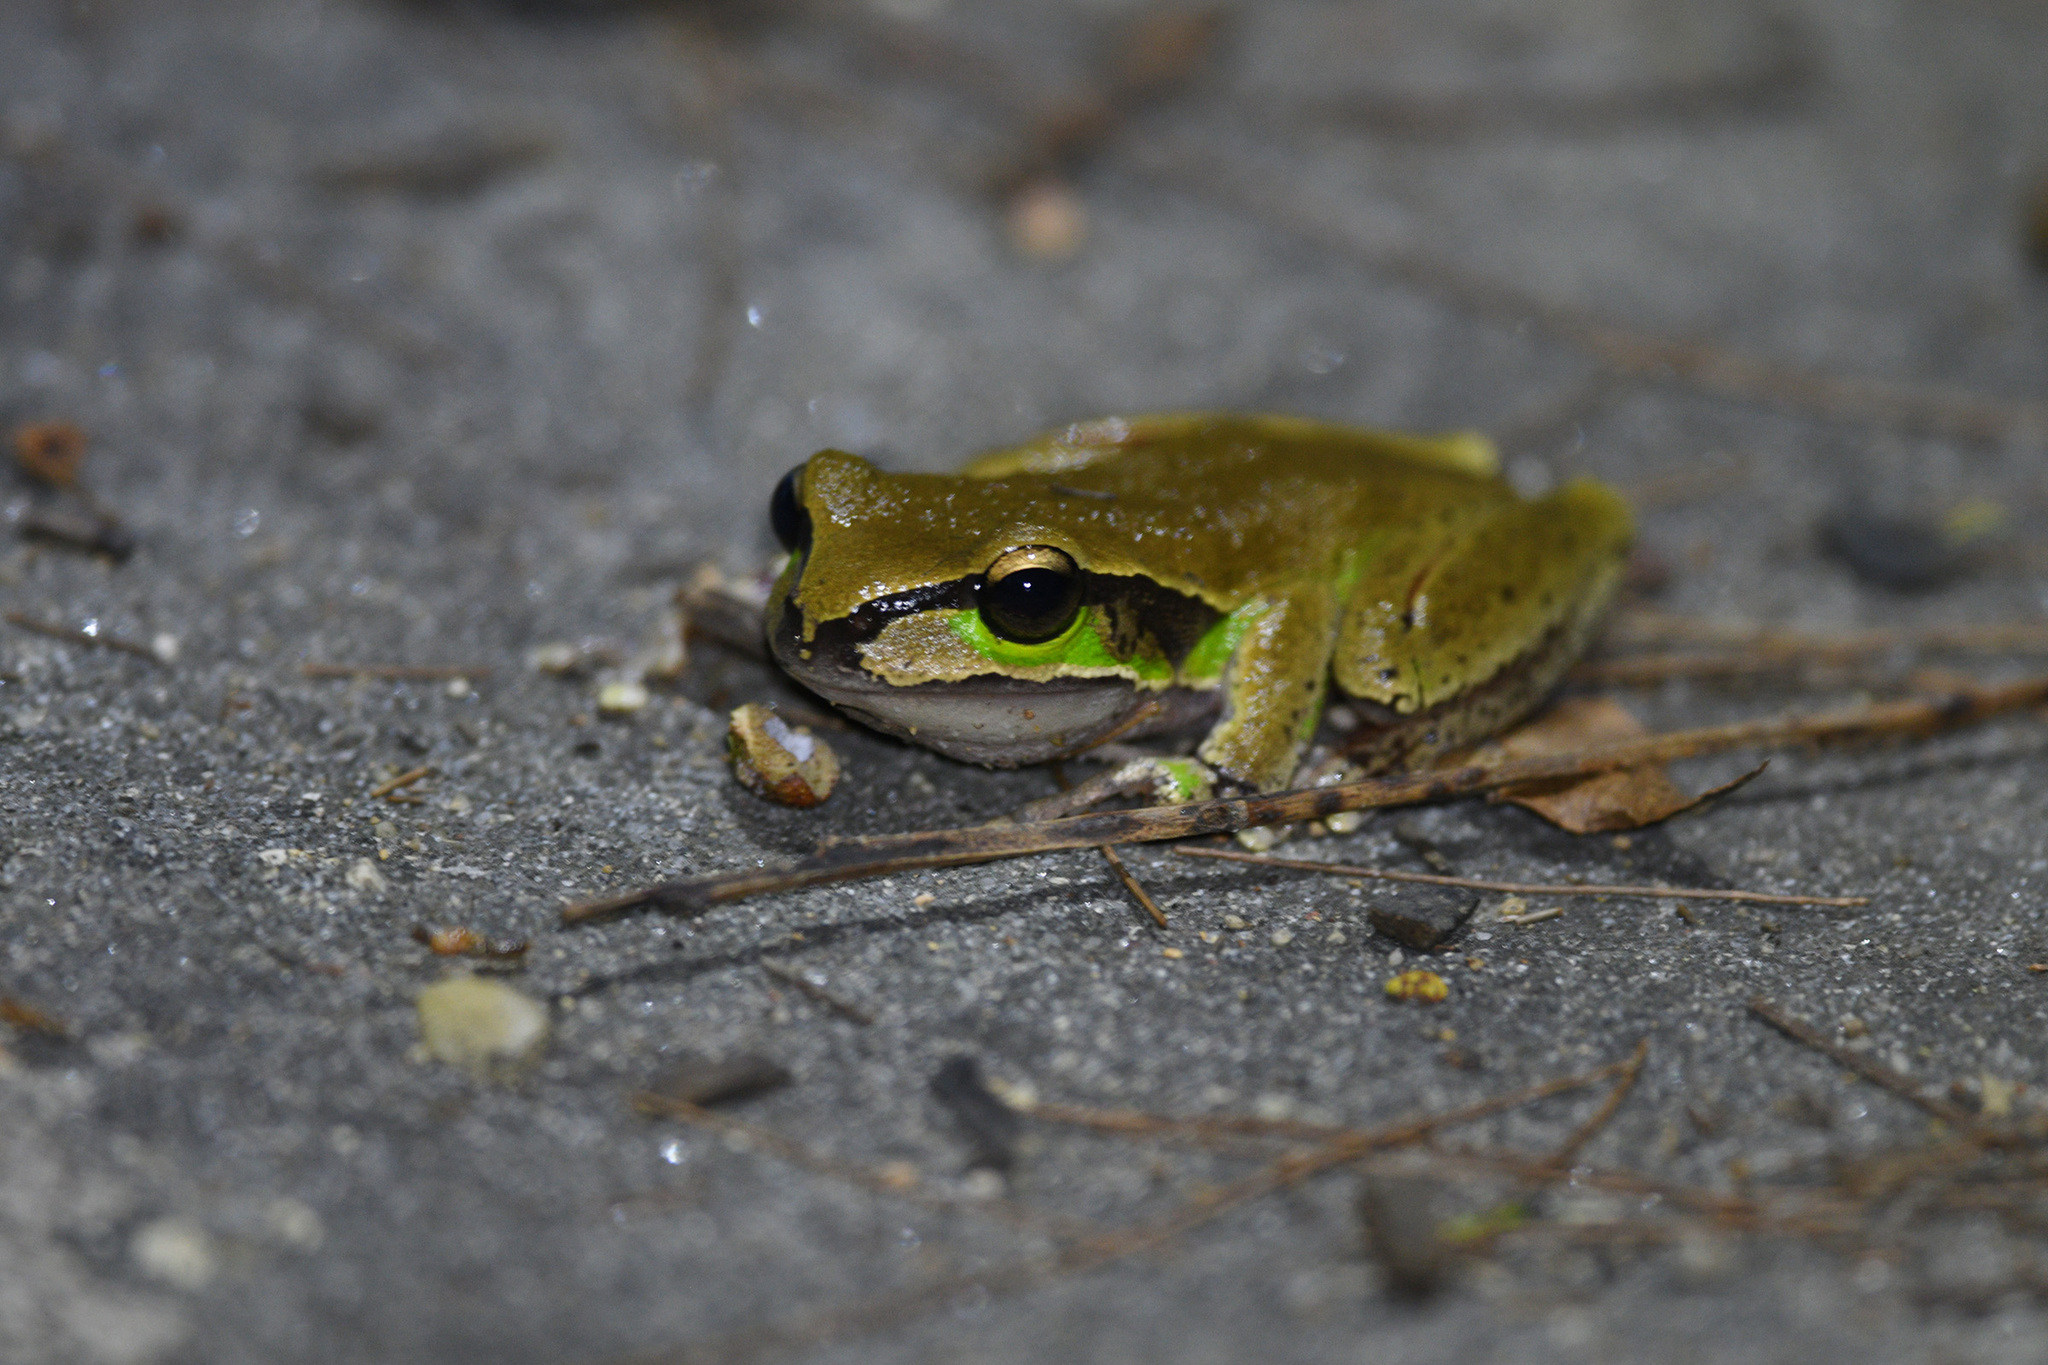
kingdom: Animalia
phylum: Chordata
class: Amphibia
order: Anura
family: Pelodryadidae
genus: Ranoidea
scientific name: Ranoidea citropa
